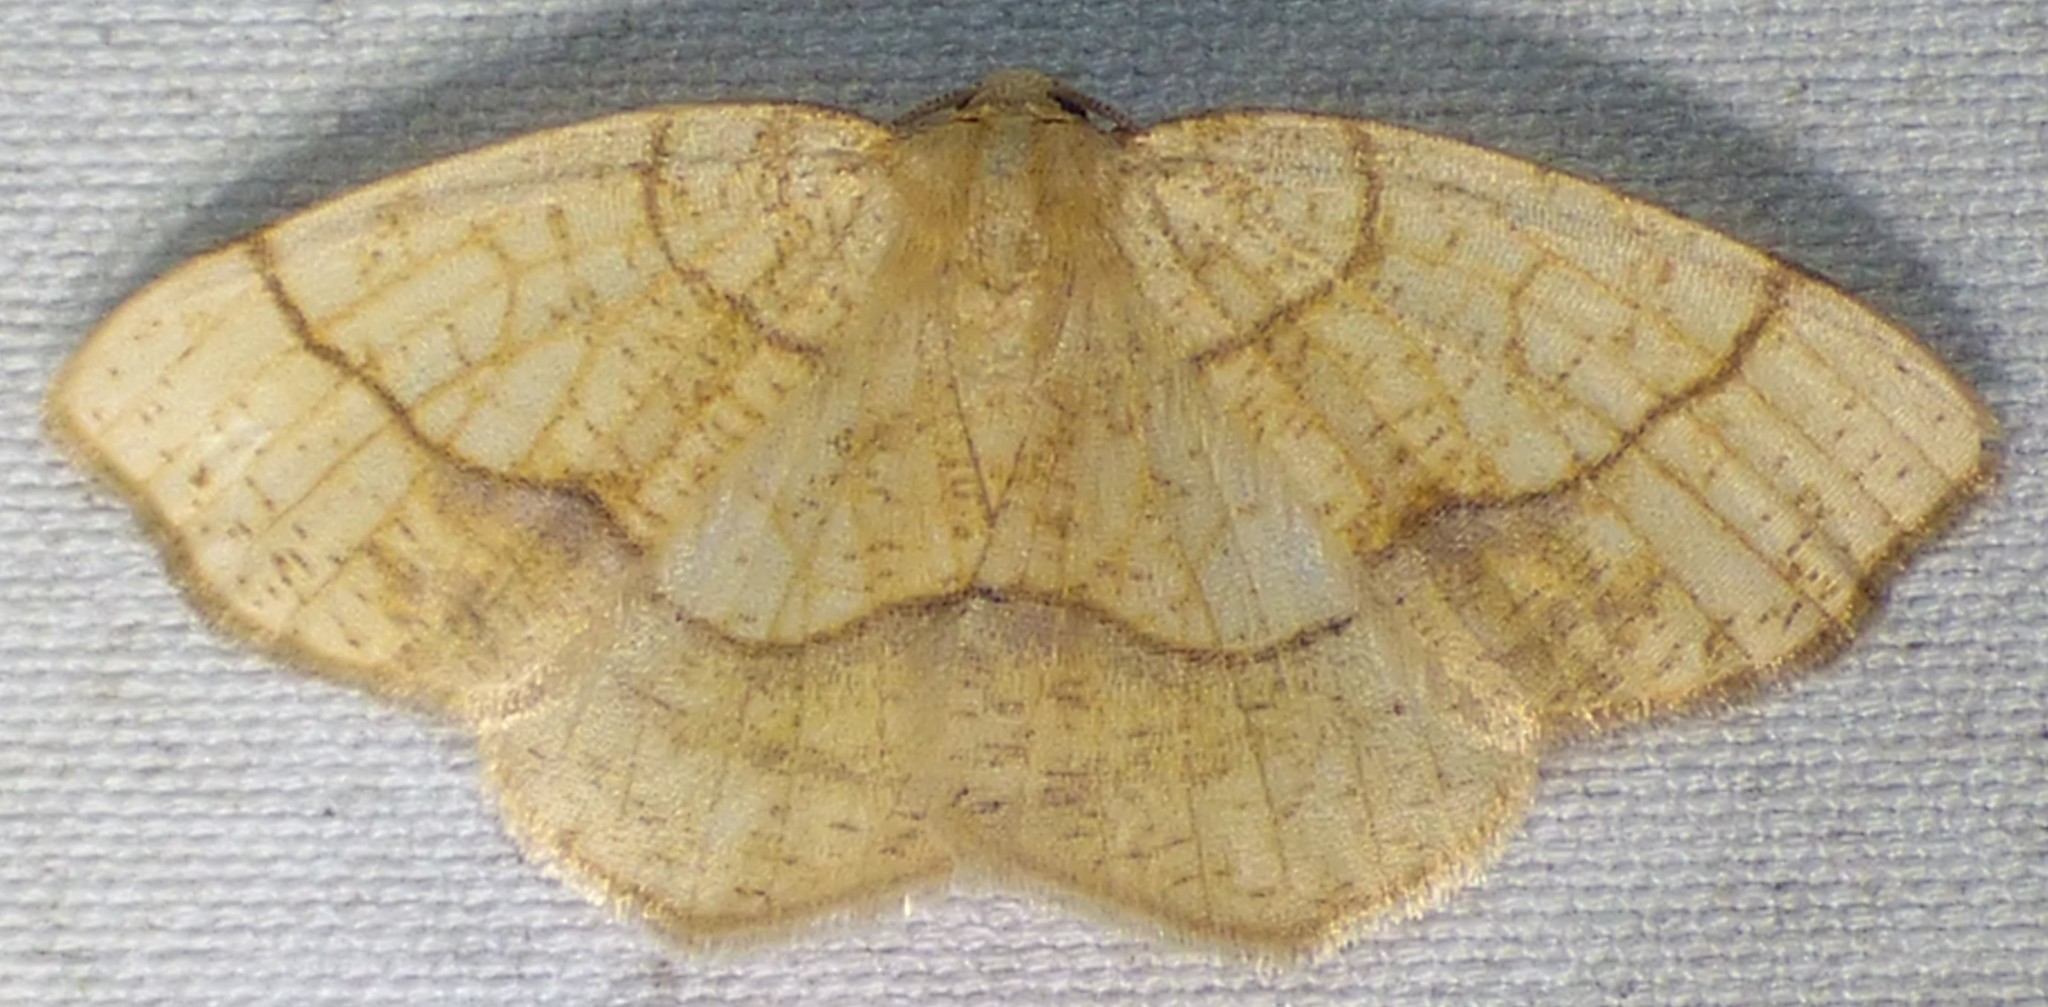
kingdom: Animalia
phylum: Arthropoda
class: Insecta
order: Lepidoptera
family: Geometridae
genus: Nematocampa
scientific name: Nematocampa resistaria
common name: Horned spanworm moth
